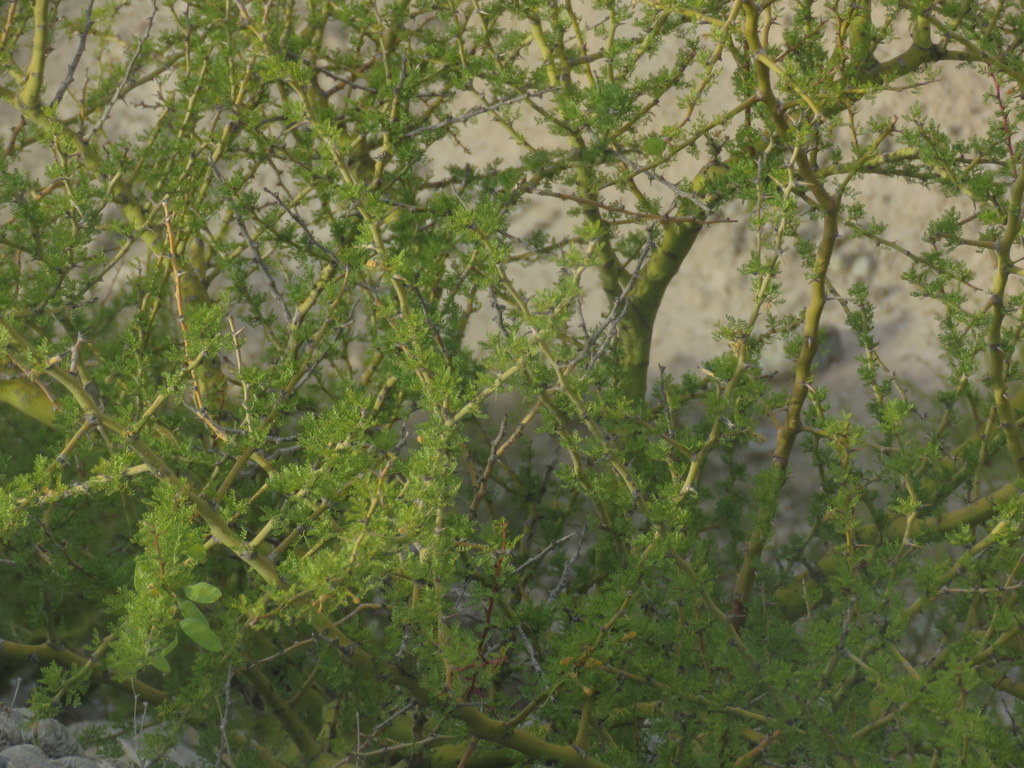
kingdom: Plantae
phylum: Tracheophyta
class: Magnoliopsida
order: Fabales
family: Fabaceae
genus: Parkinsonia
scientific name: Parkinsonia praecox
